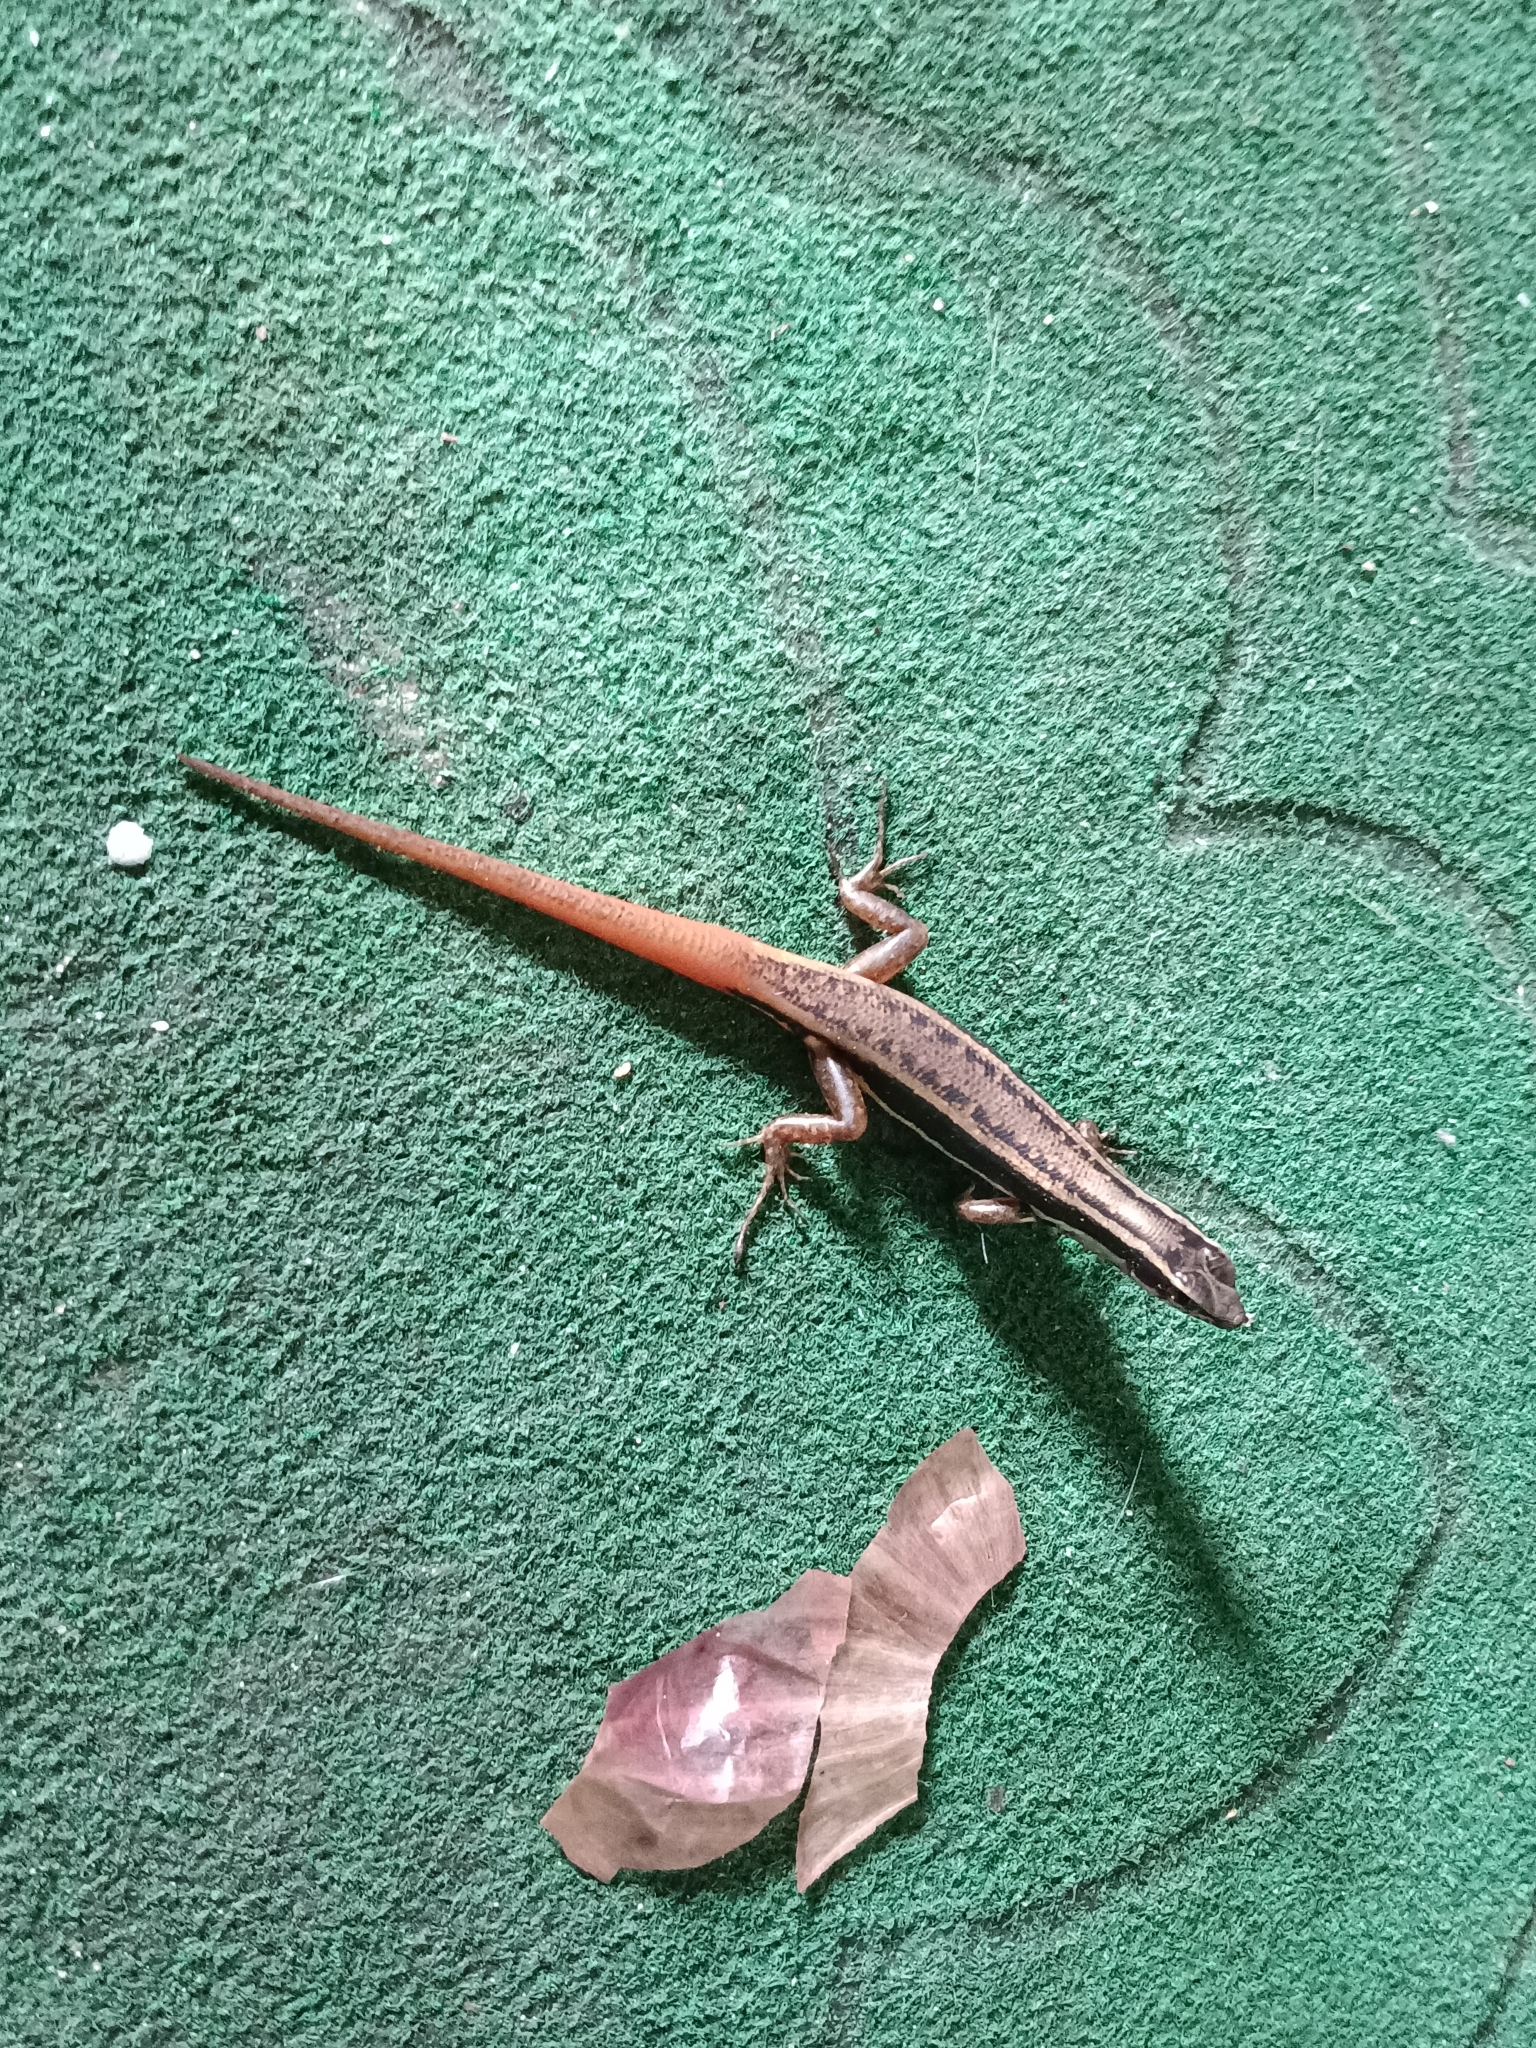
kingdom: Animalia
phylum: Chordata
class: Squamata
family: Scincidae
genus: Sphenomorphus
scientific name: Sphenomorphus dussumieri
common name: Dussumier's forest skink
